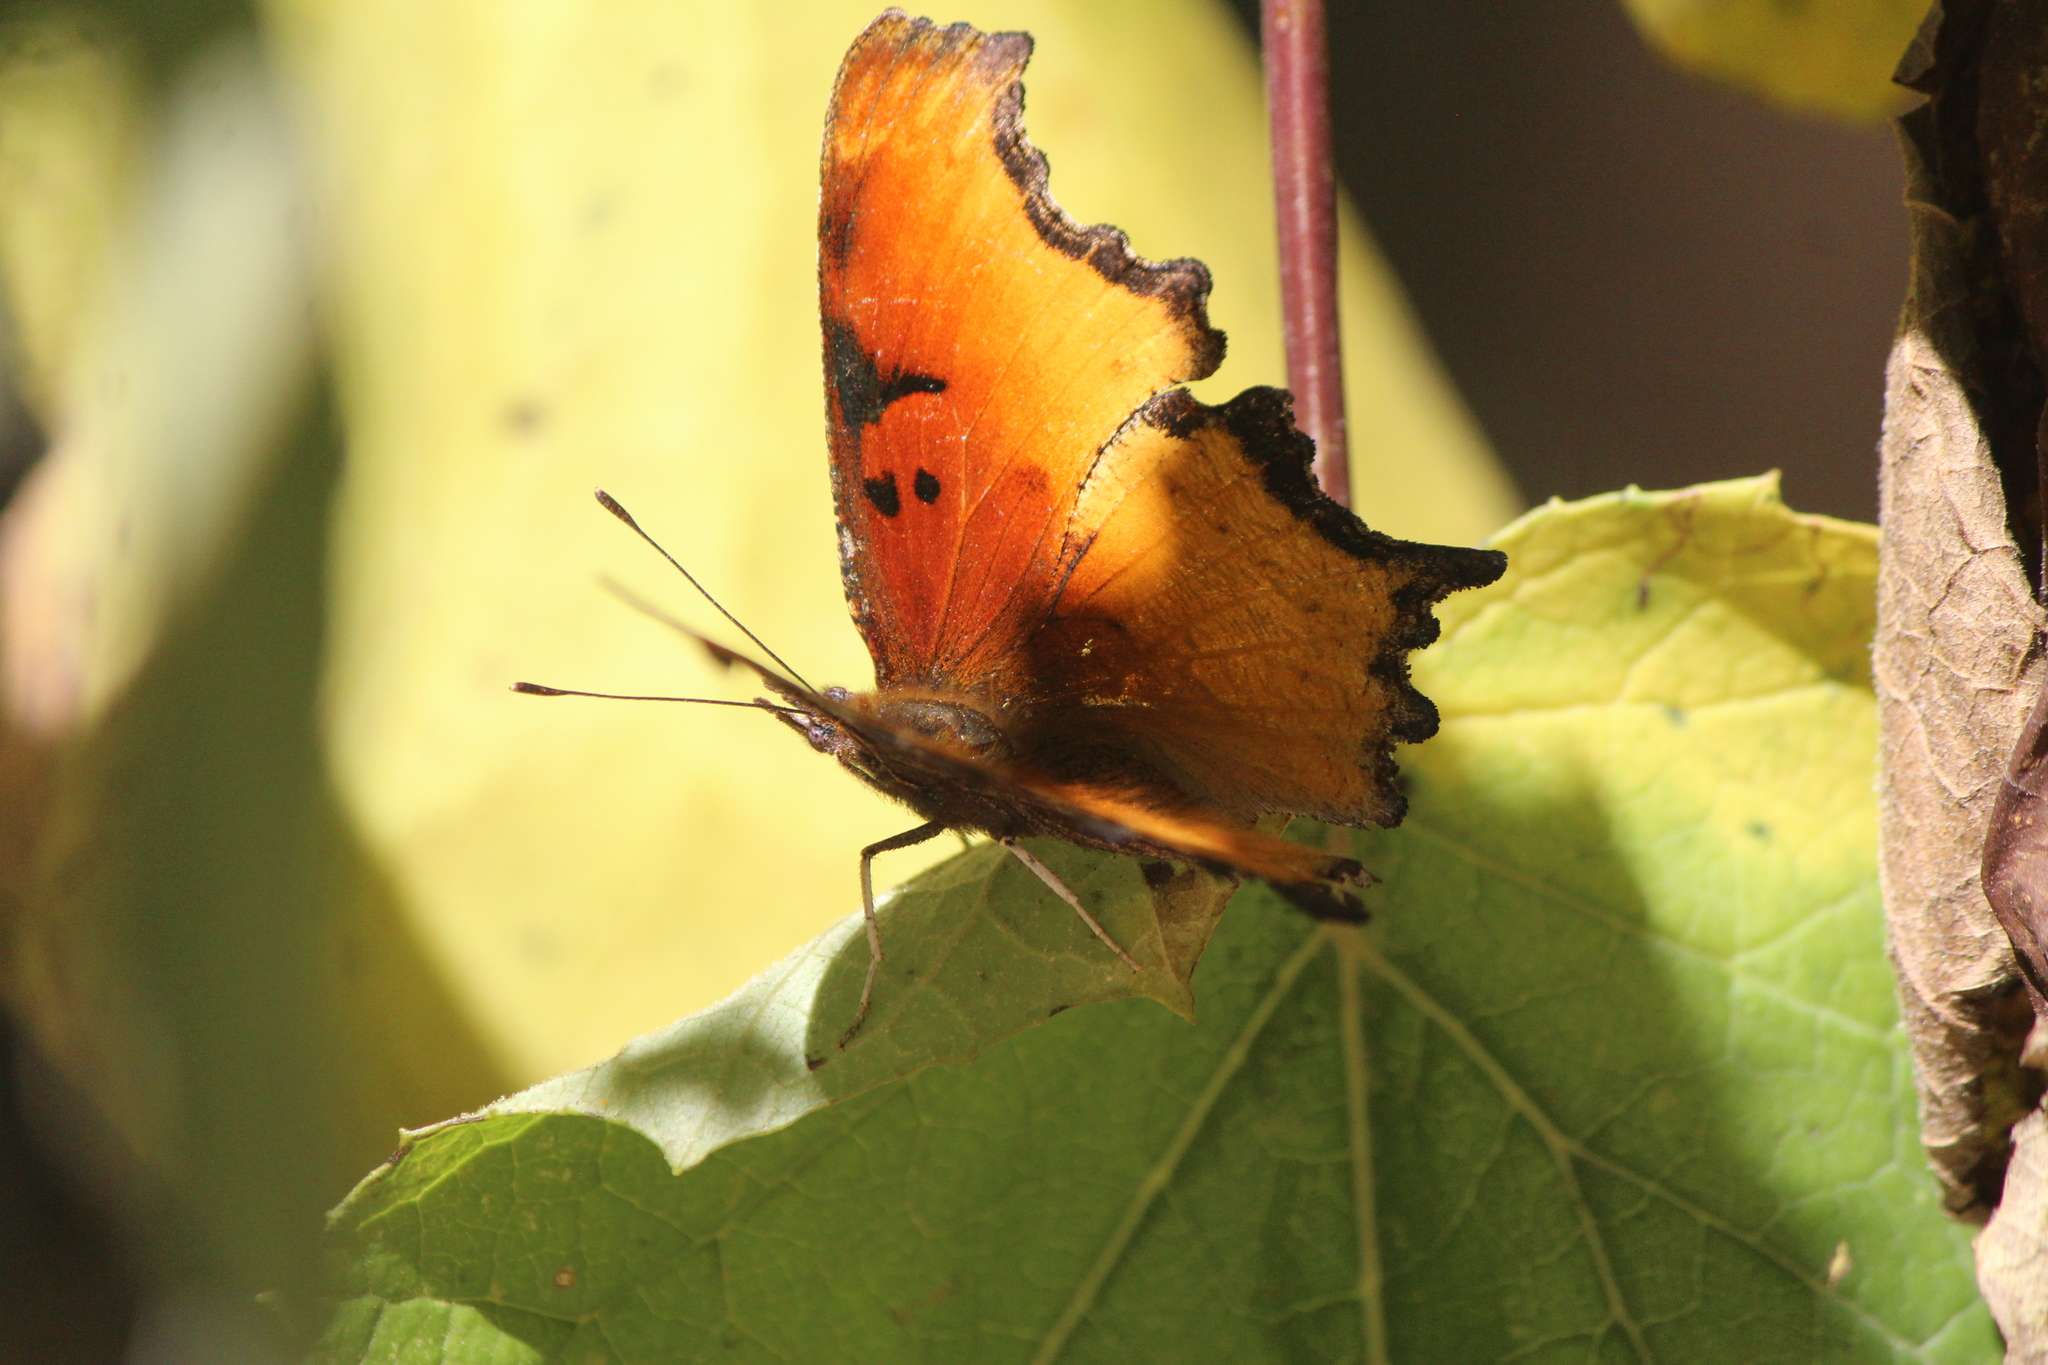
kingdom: Animalia
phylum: Arthropoda
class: Insecta
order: Lepidoptera
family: Nymphalidae
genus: Polygonia
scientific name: Polygonia haroldi
